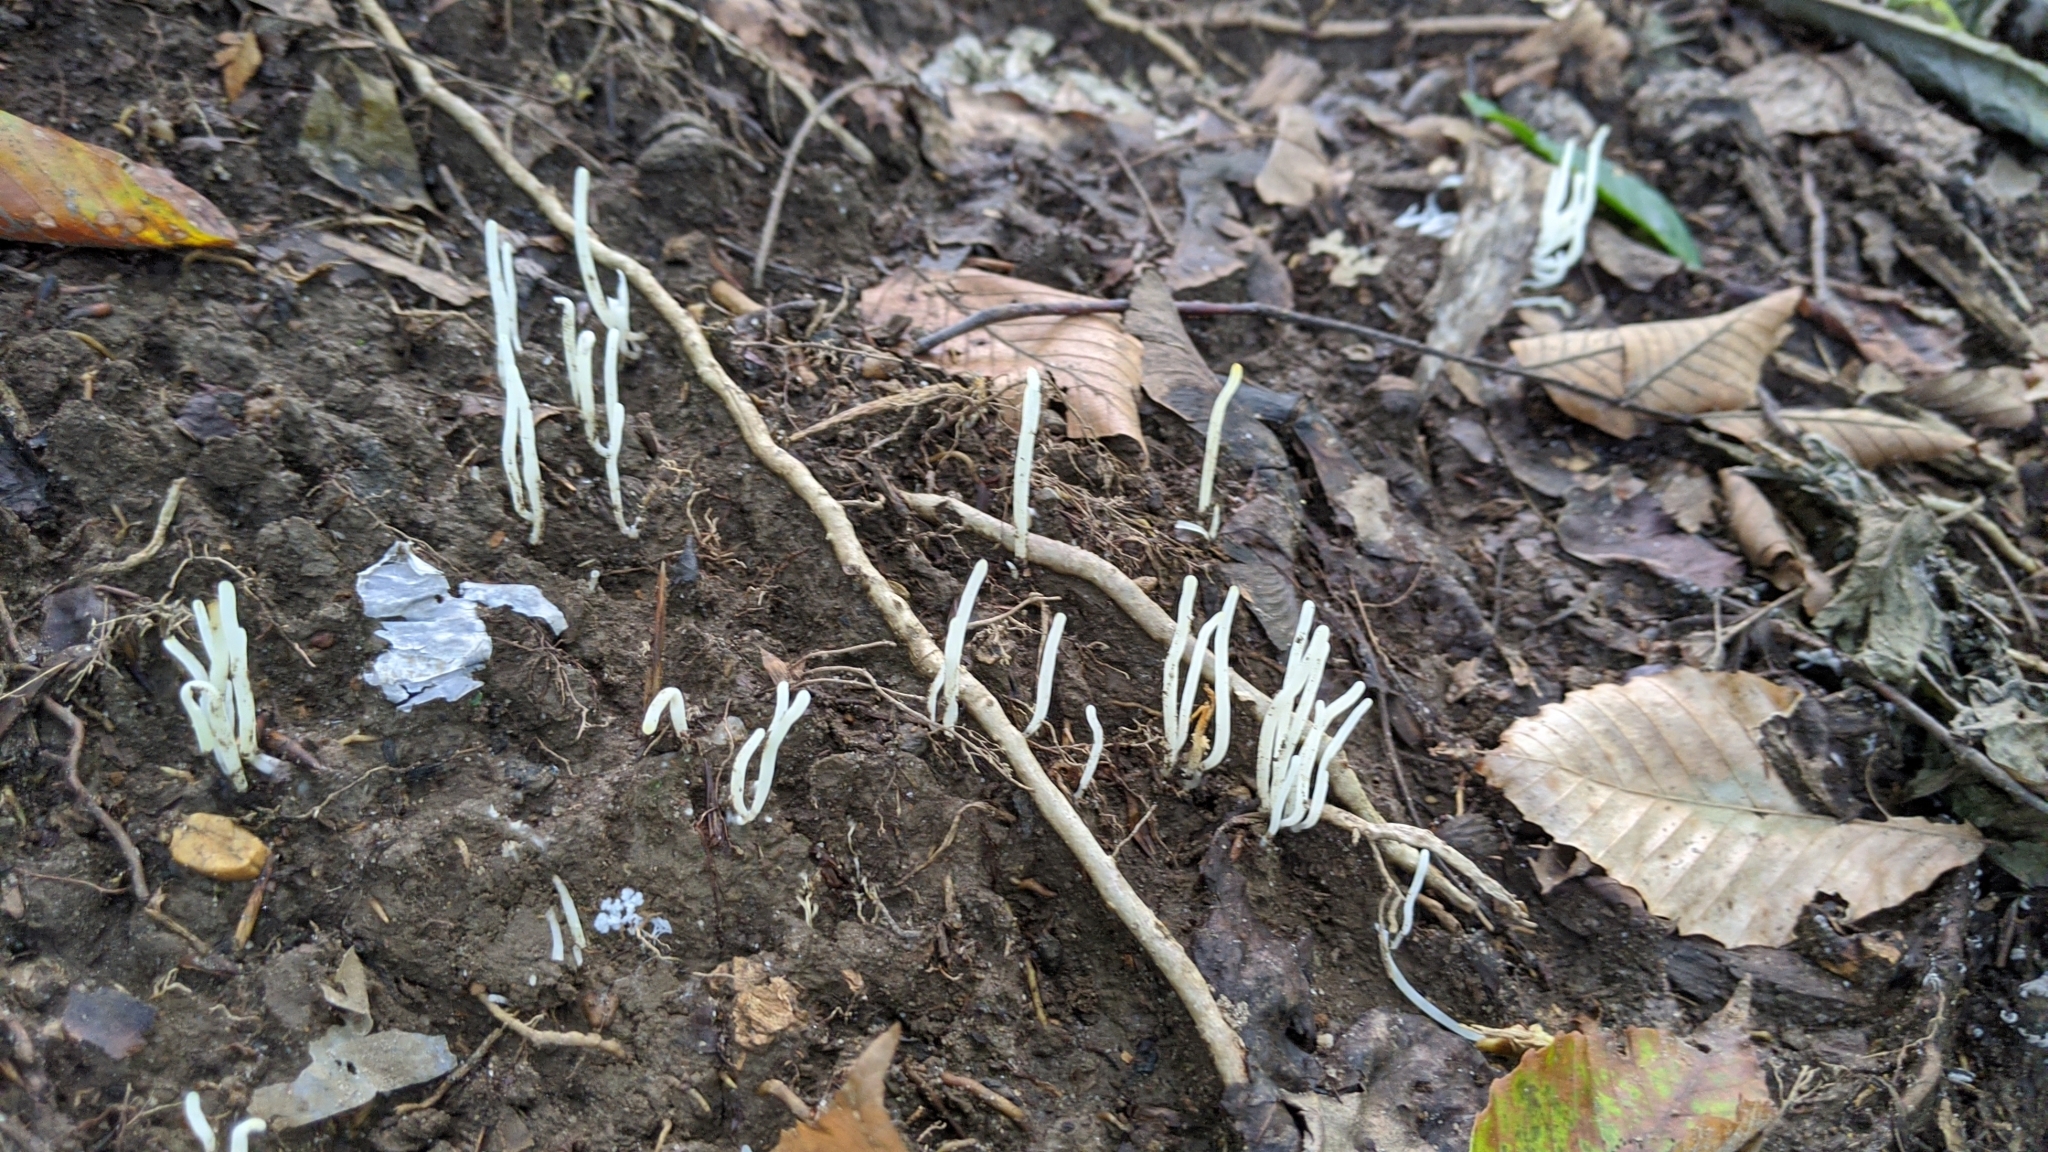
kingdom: Fungi
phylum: Basidiomycota
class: Agaricomycetes
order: Agaricales
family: Clavariaceae
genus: Clavaria
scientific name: Clavaria fragilis
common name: White spindles
